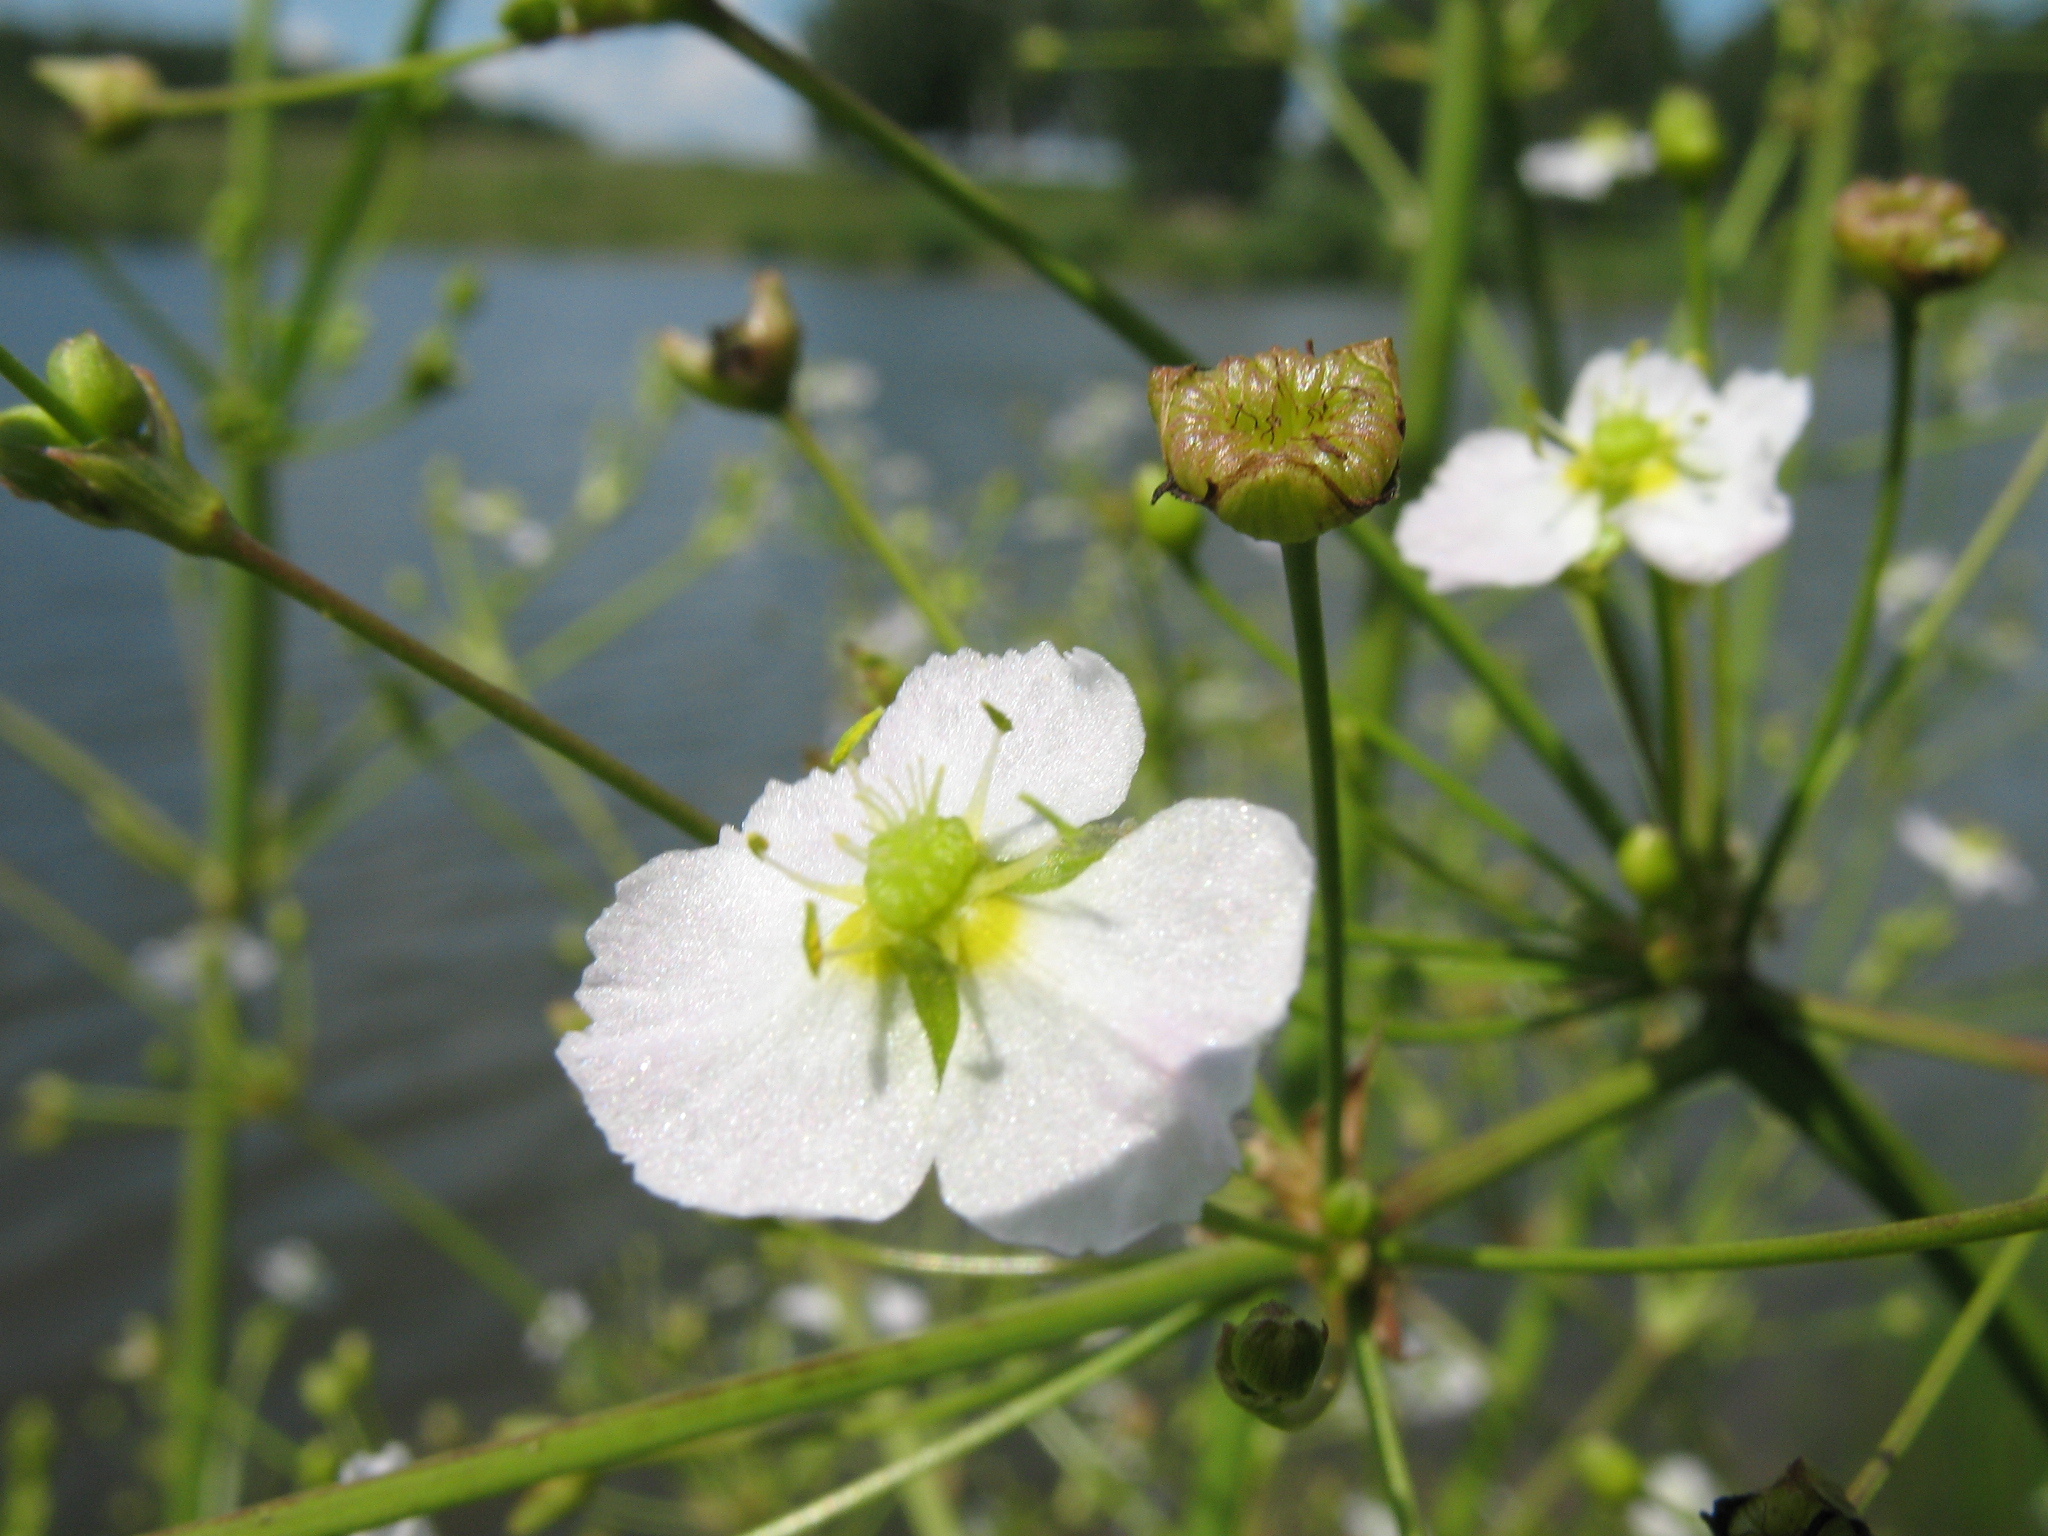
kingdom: Plantae
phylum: Tracheophyta
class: Liliopsida
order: Alismatales
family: Alismataceae
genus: Alisma
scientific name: Alisma plantago-aquatica
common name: Water-plantain
